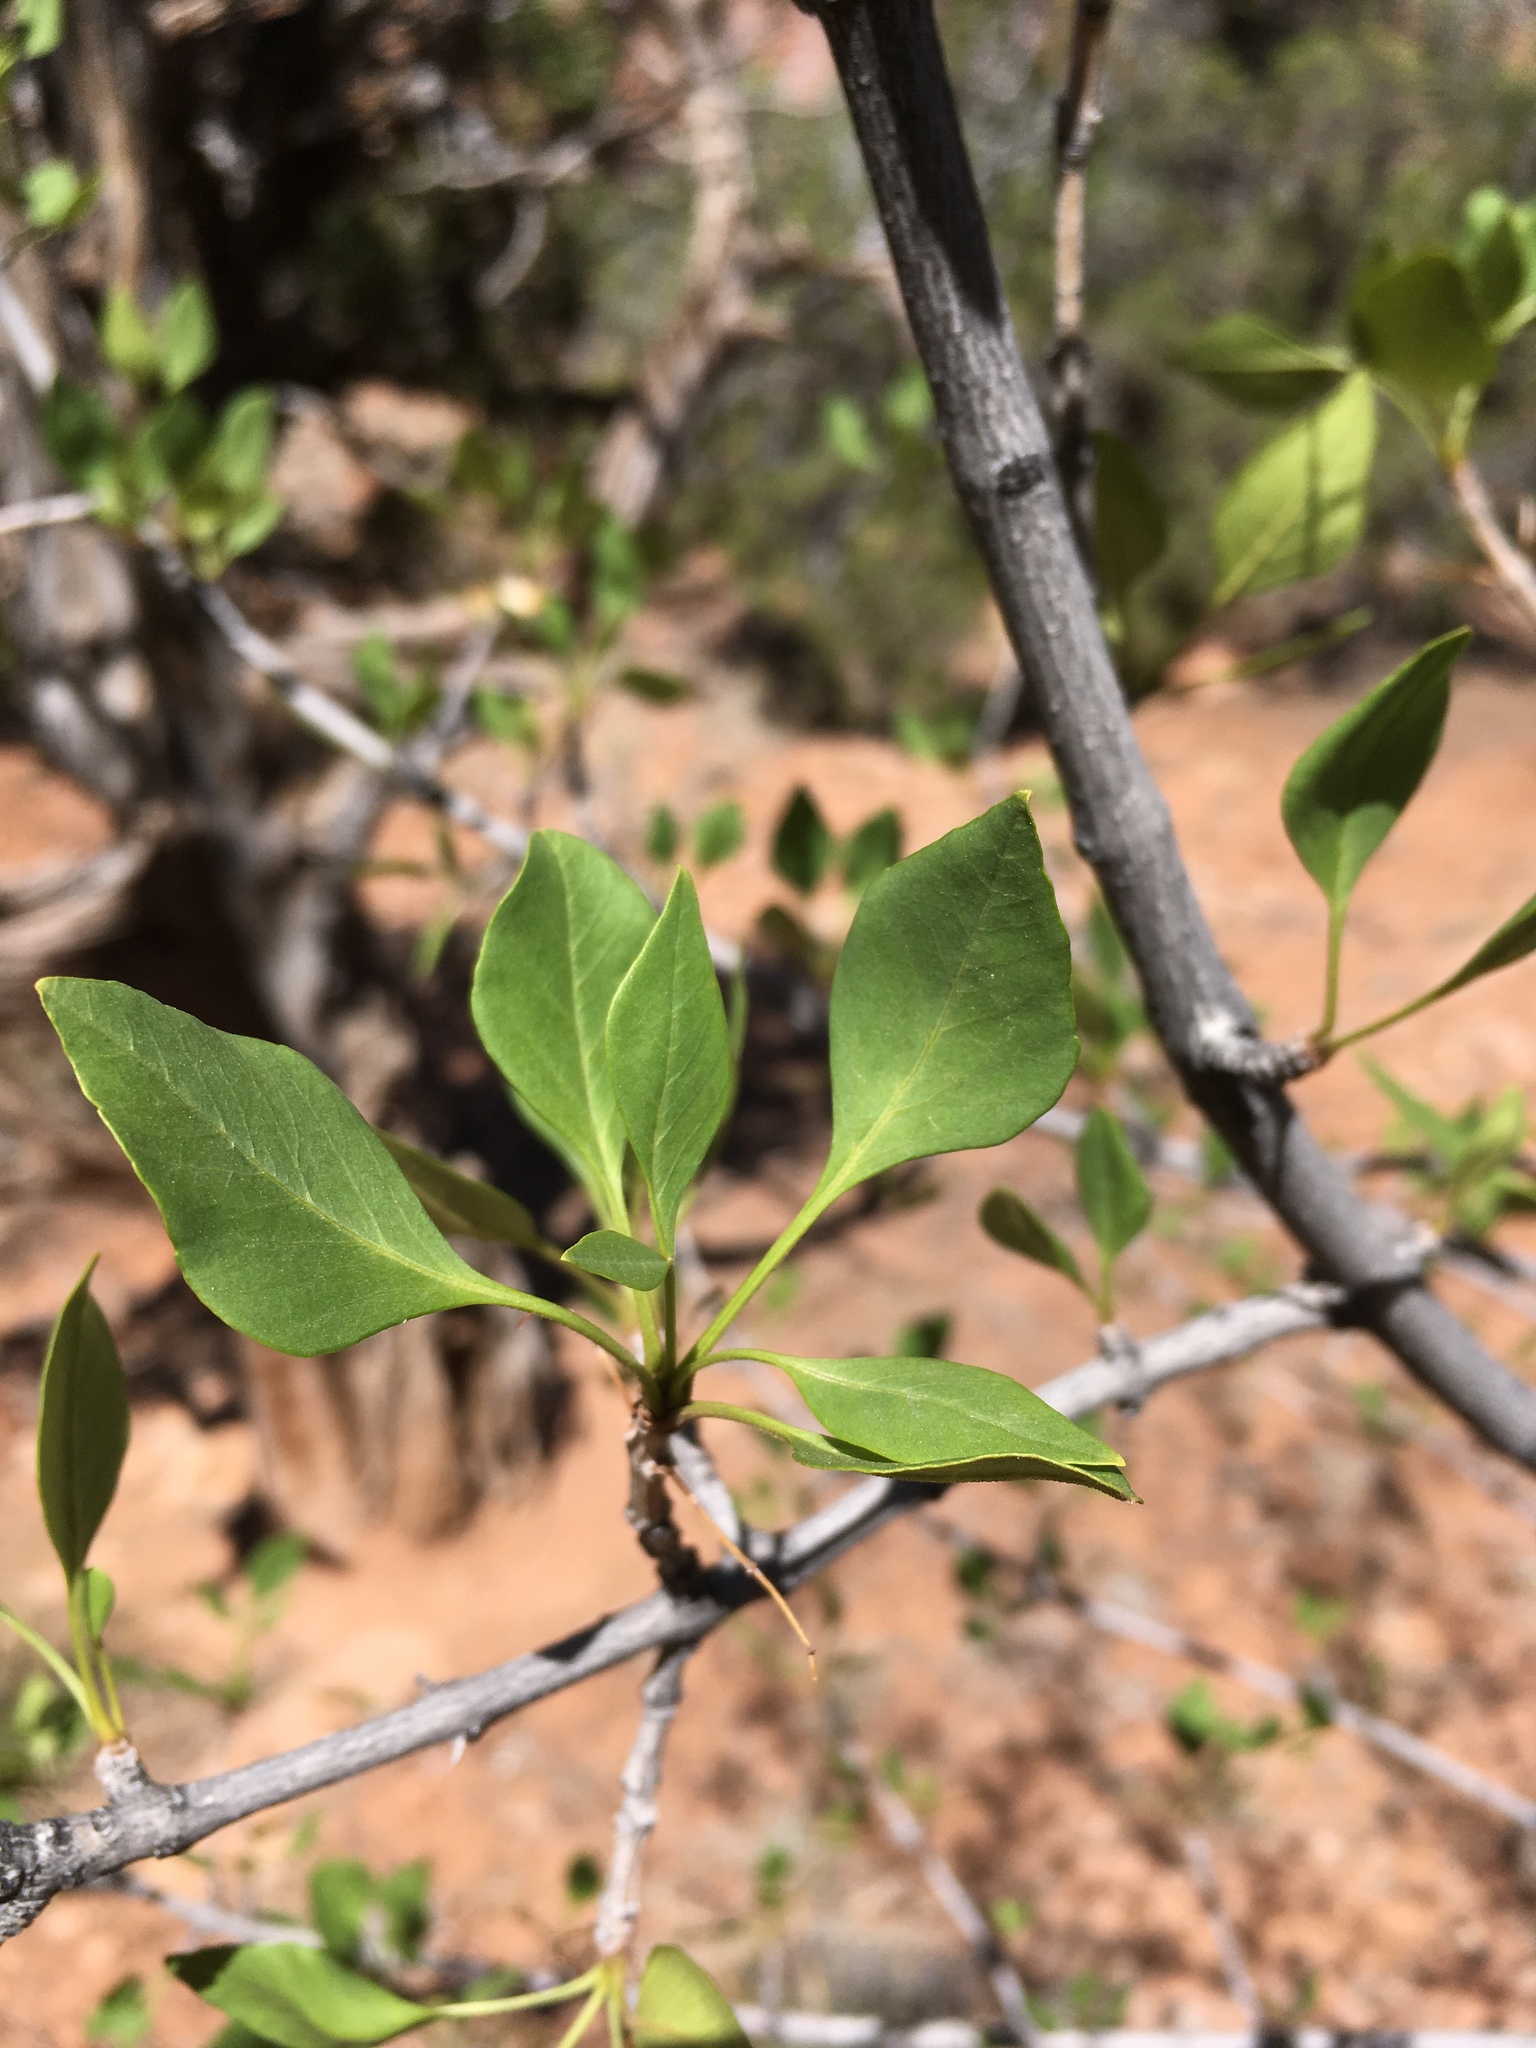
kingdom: Plantae
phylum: Tracheophyta
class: Magnoliopsida
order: Lamiales
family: Oleaceae
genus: Fraxinus
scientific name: Fraxinus anomala
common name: Utah ash
